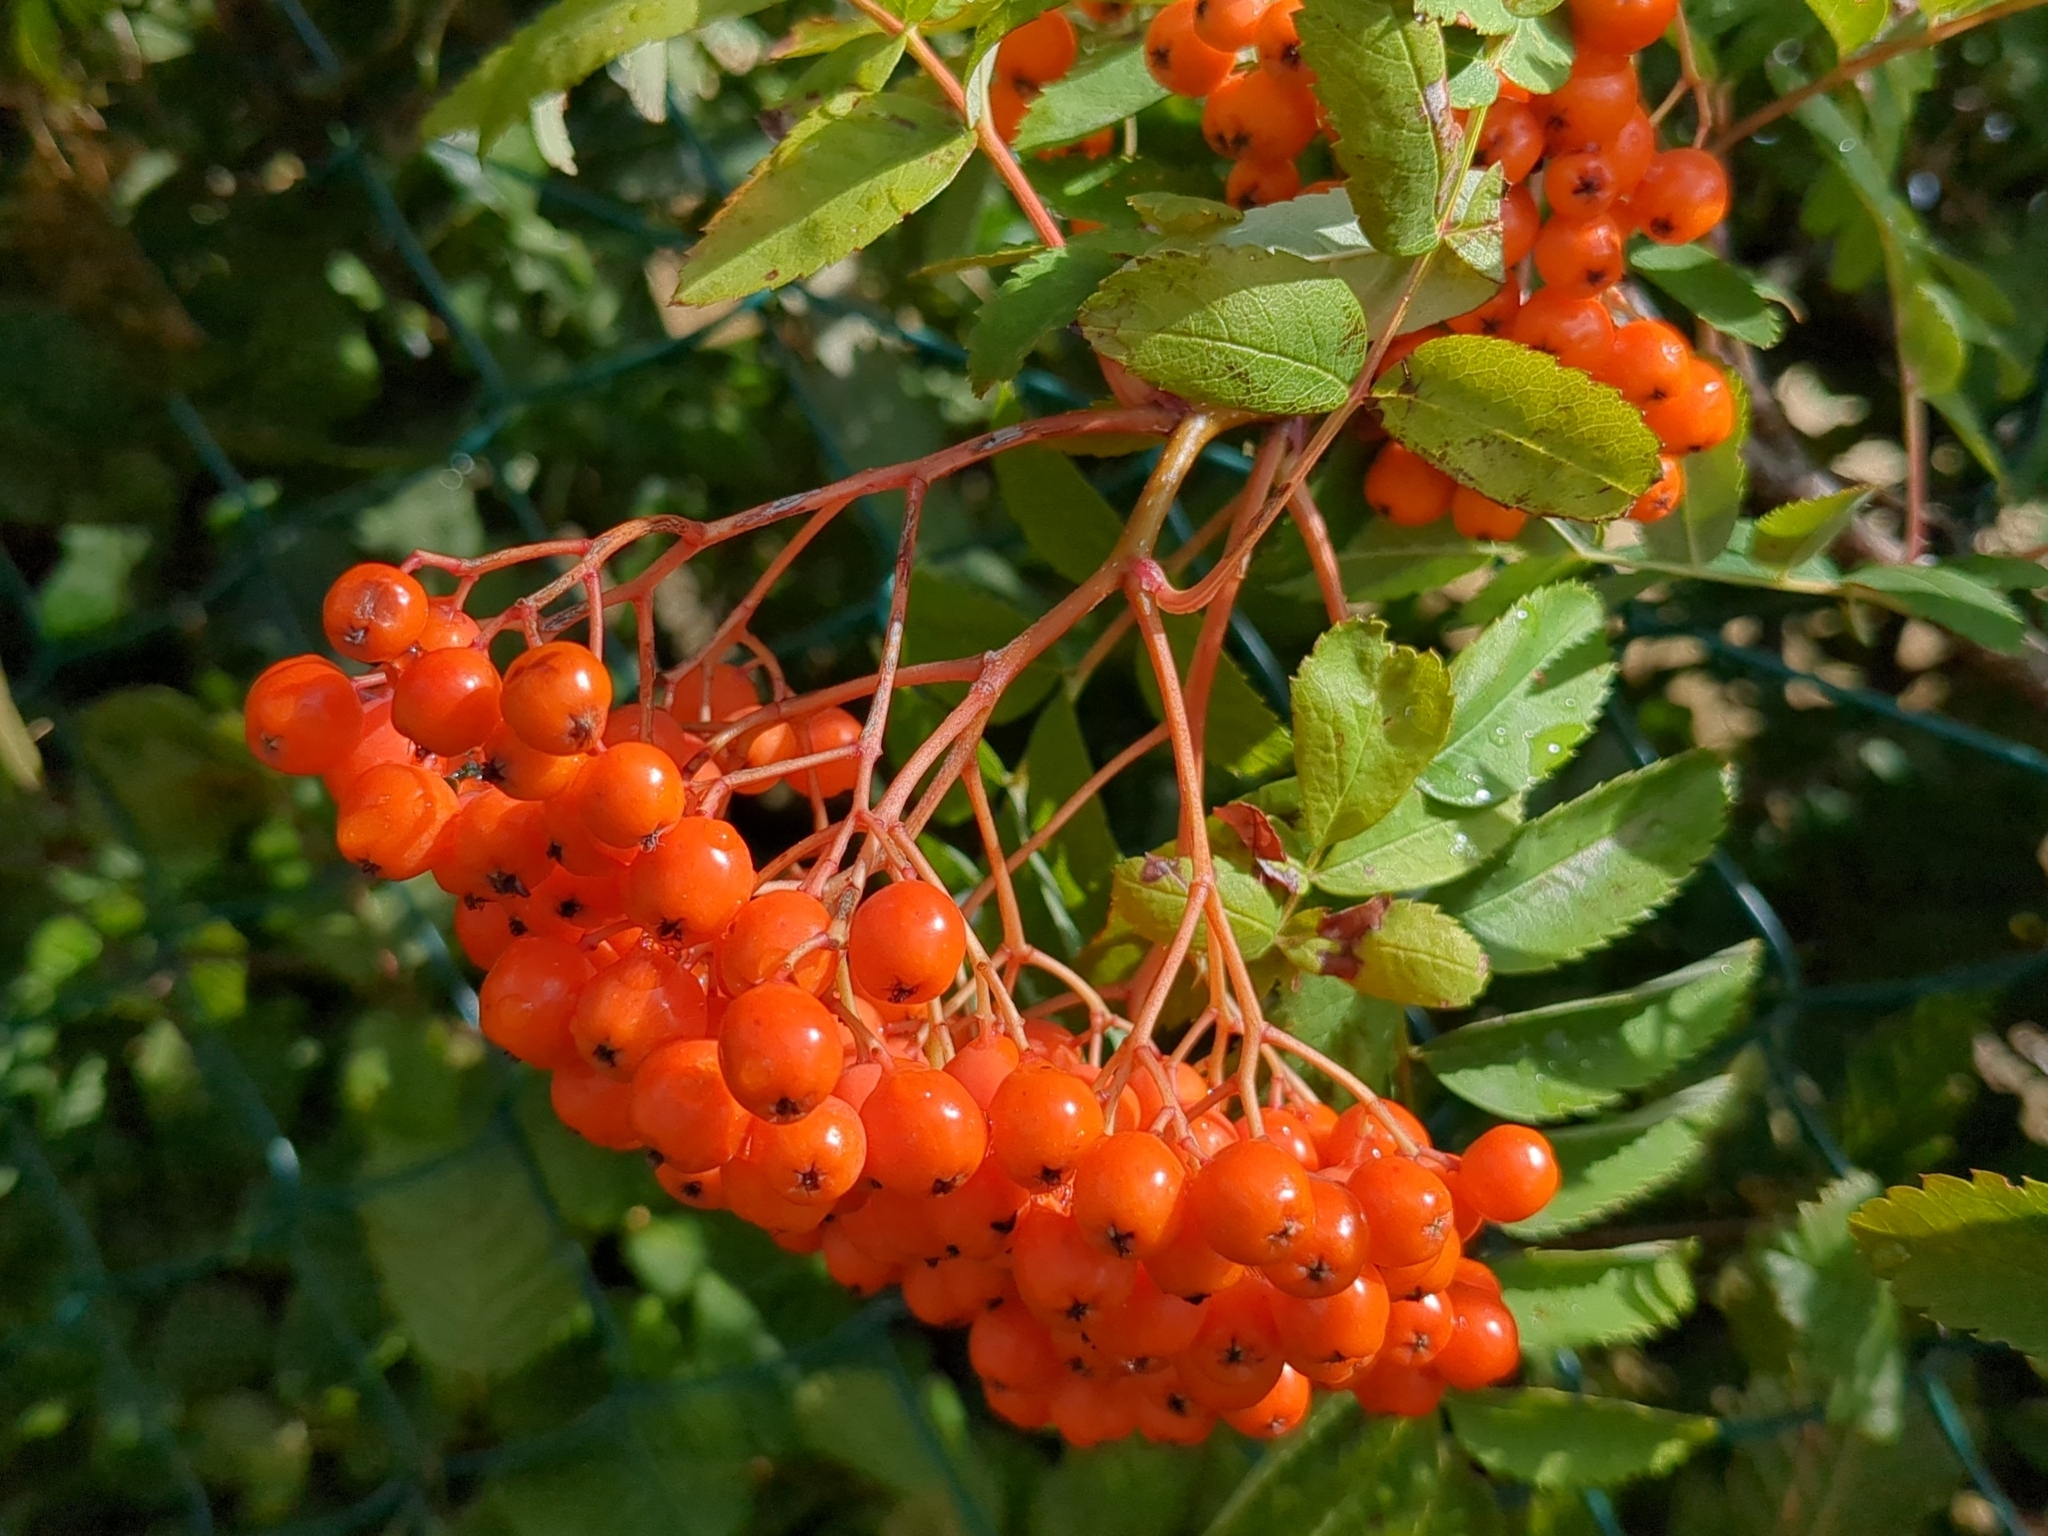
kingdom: Plantae
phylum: Tracheophyta
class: Magnoliopsida
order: Rosales
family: Rosaceae
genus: Sorbus
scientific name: Sorbus aucuparia
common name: Rowan
